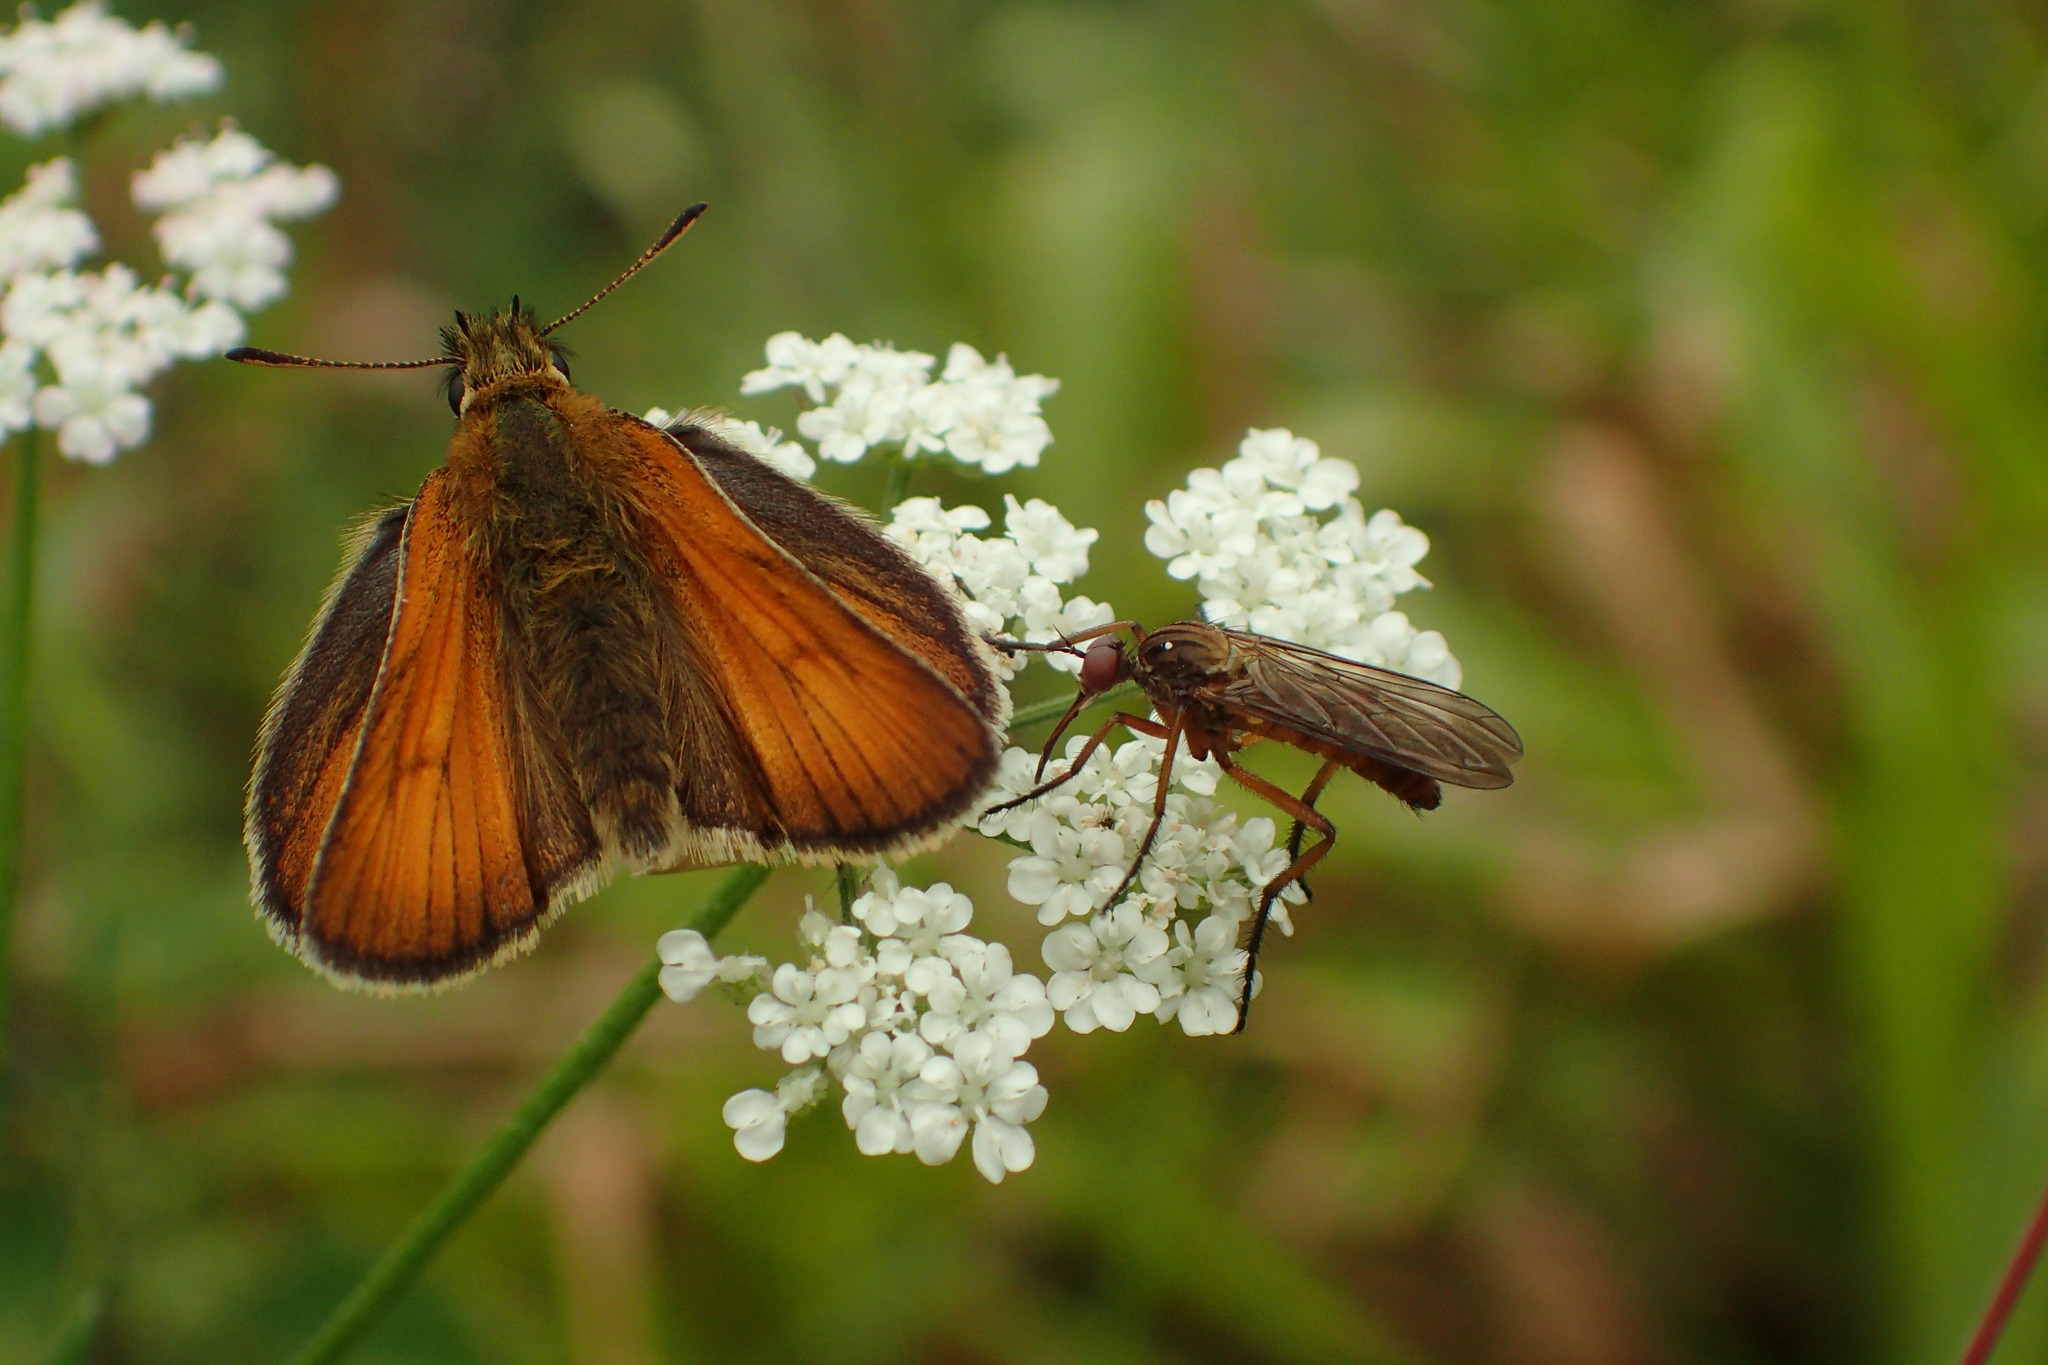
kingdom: Animalia
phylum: Arthropoda
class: Insecta
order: Lepidoptera
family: Hesperiidae
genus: Thymelicus
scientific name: Thymelicus sylvestris
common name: Small skipper
